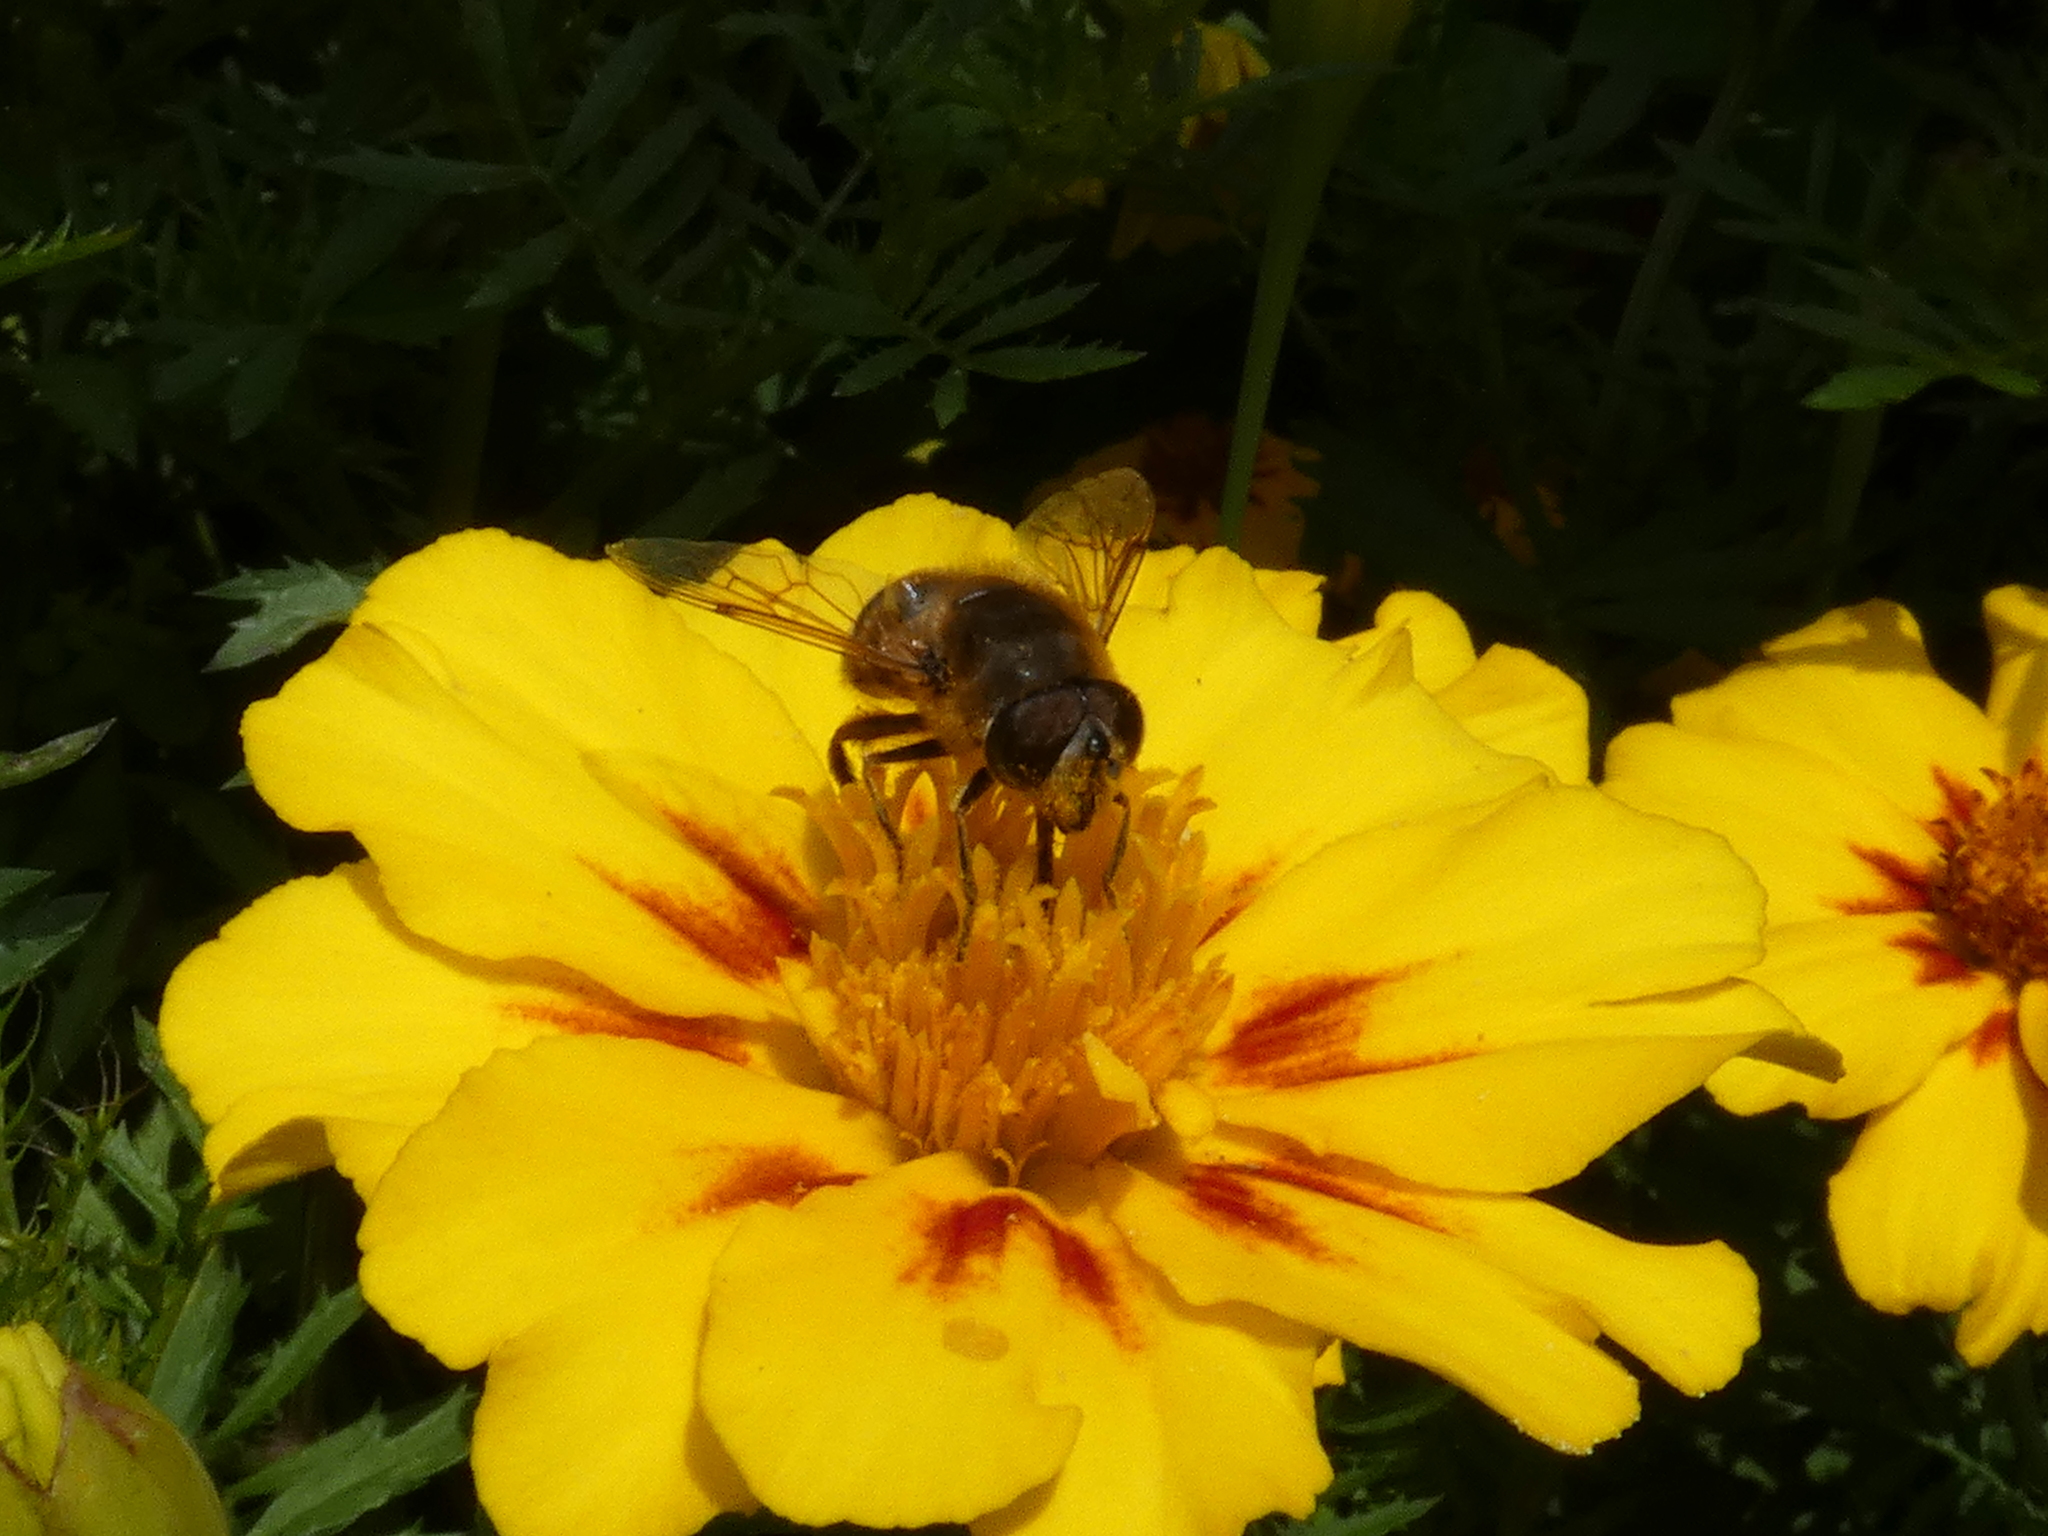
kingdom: Animalia
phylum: Arthropoda
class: Insecta
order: Diptera
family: Syrphidae
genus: Eristalis
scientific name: Eristalis tenax
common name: Drone fly
